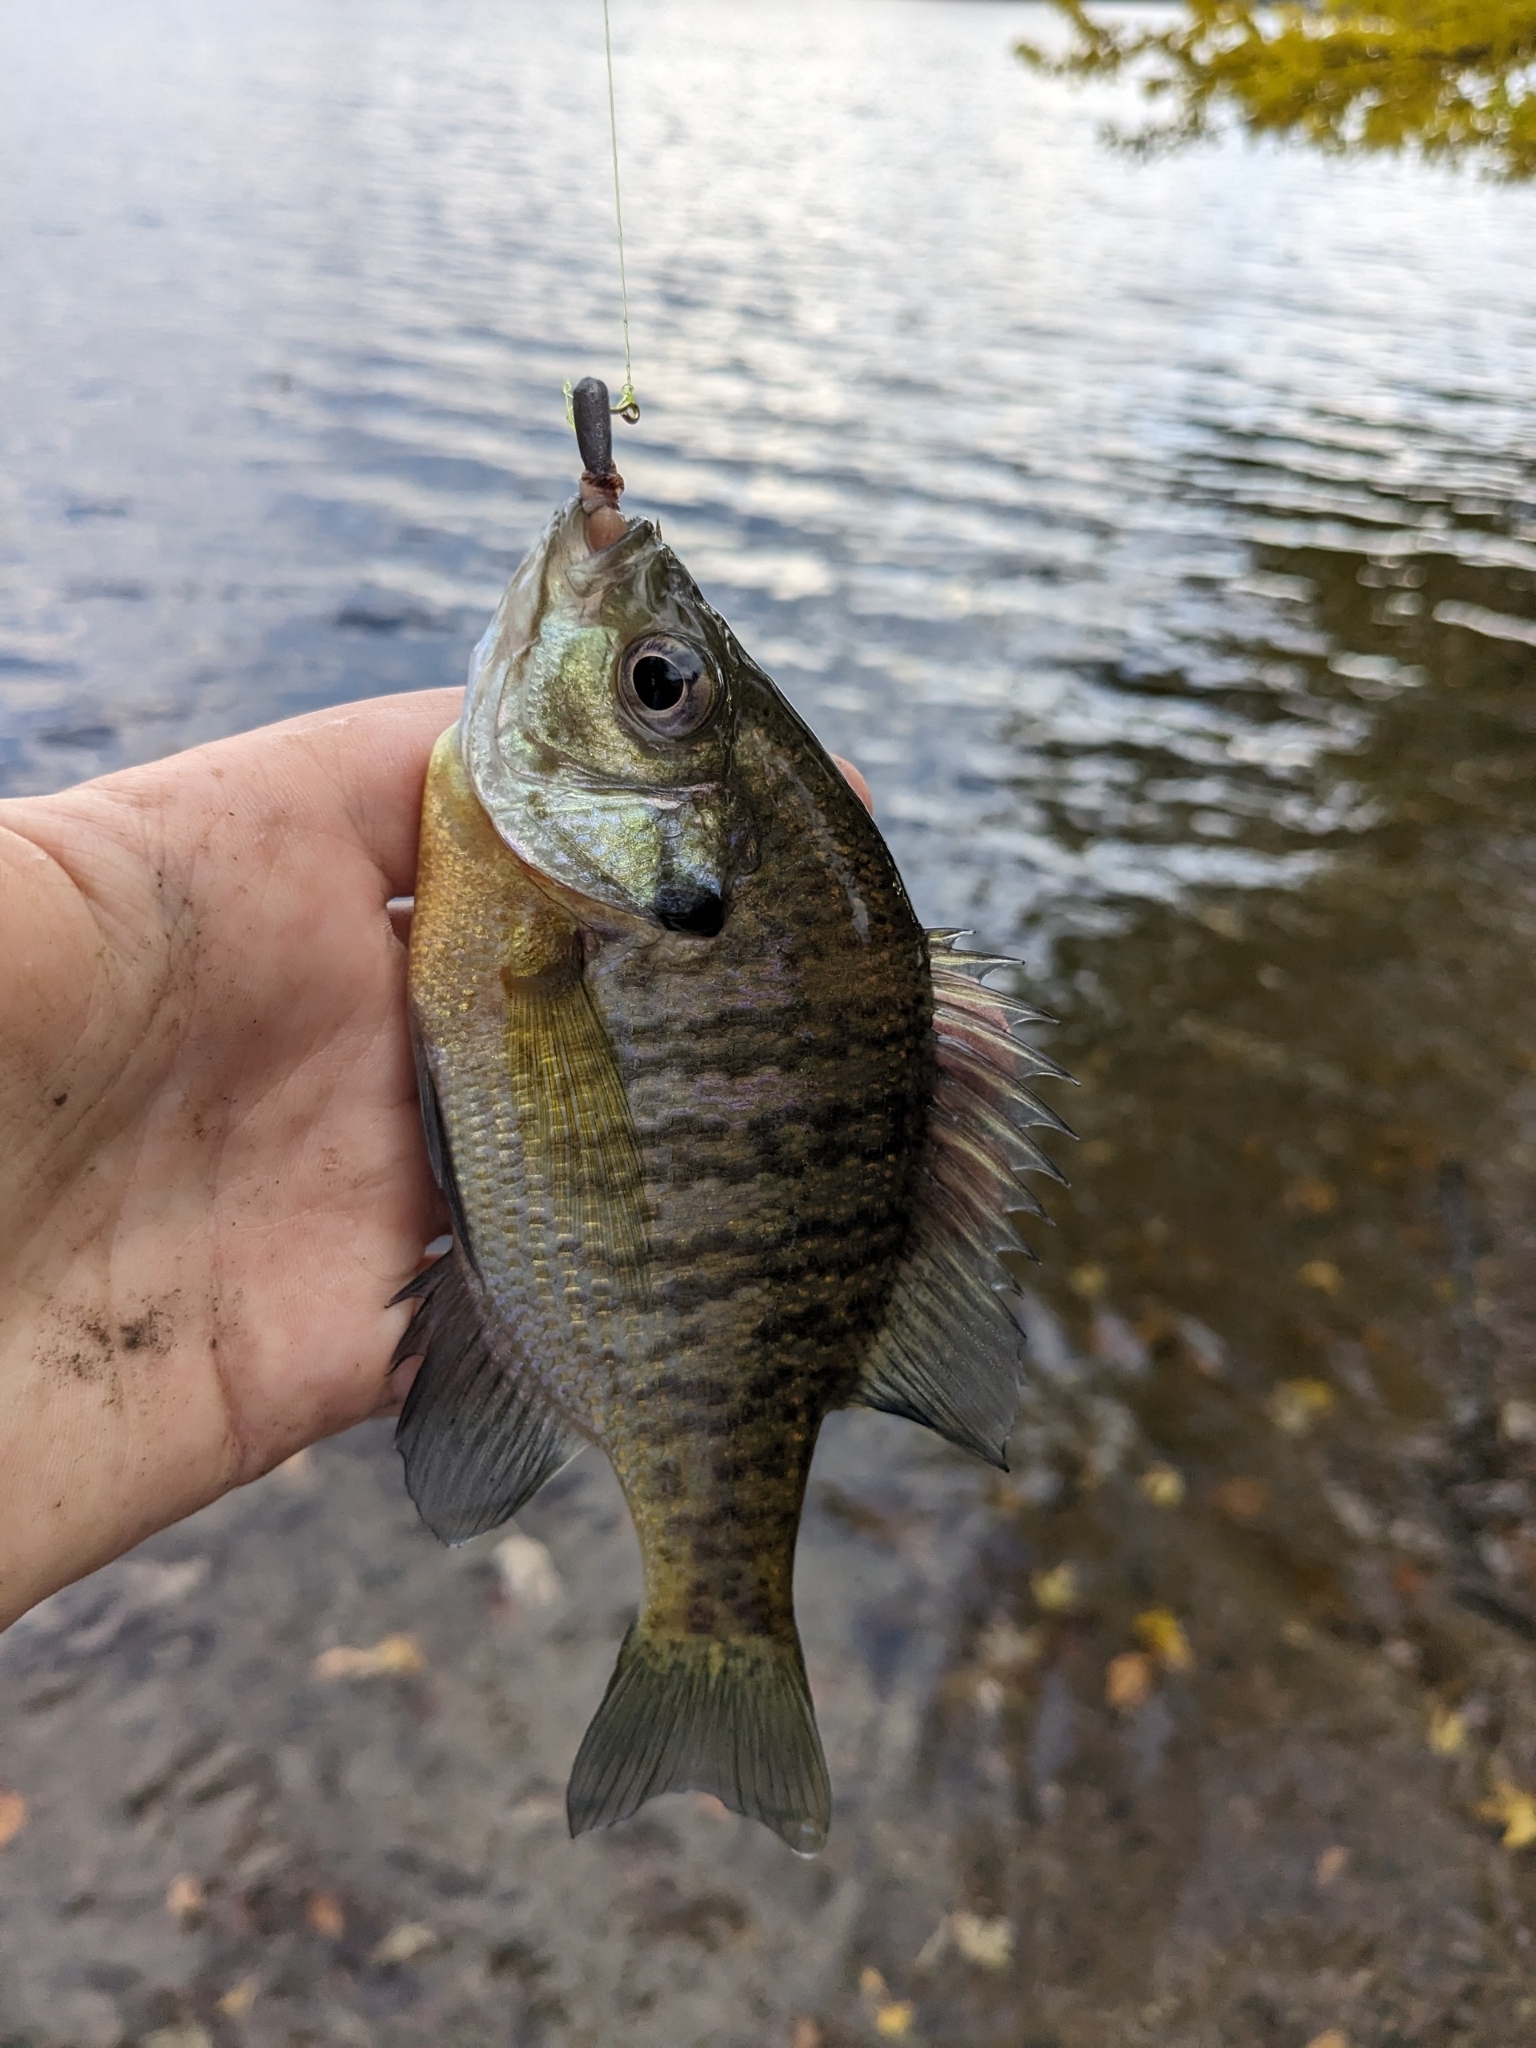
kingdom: Animalia
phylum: Chordata
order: Perciformes
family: Centrarchidae
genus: Lepomis
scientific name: Lepomis macrochirus
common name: Bluegill
